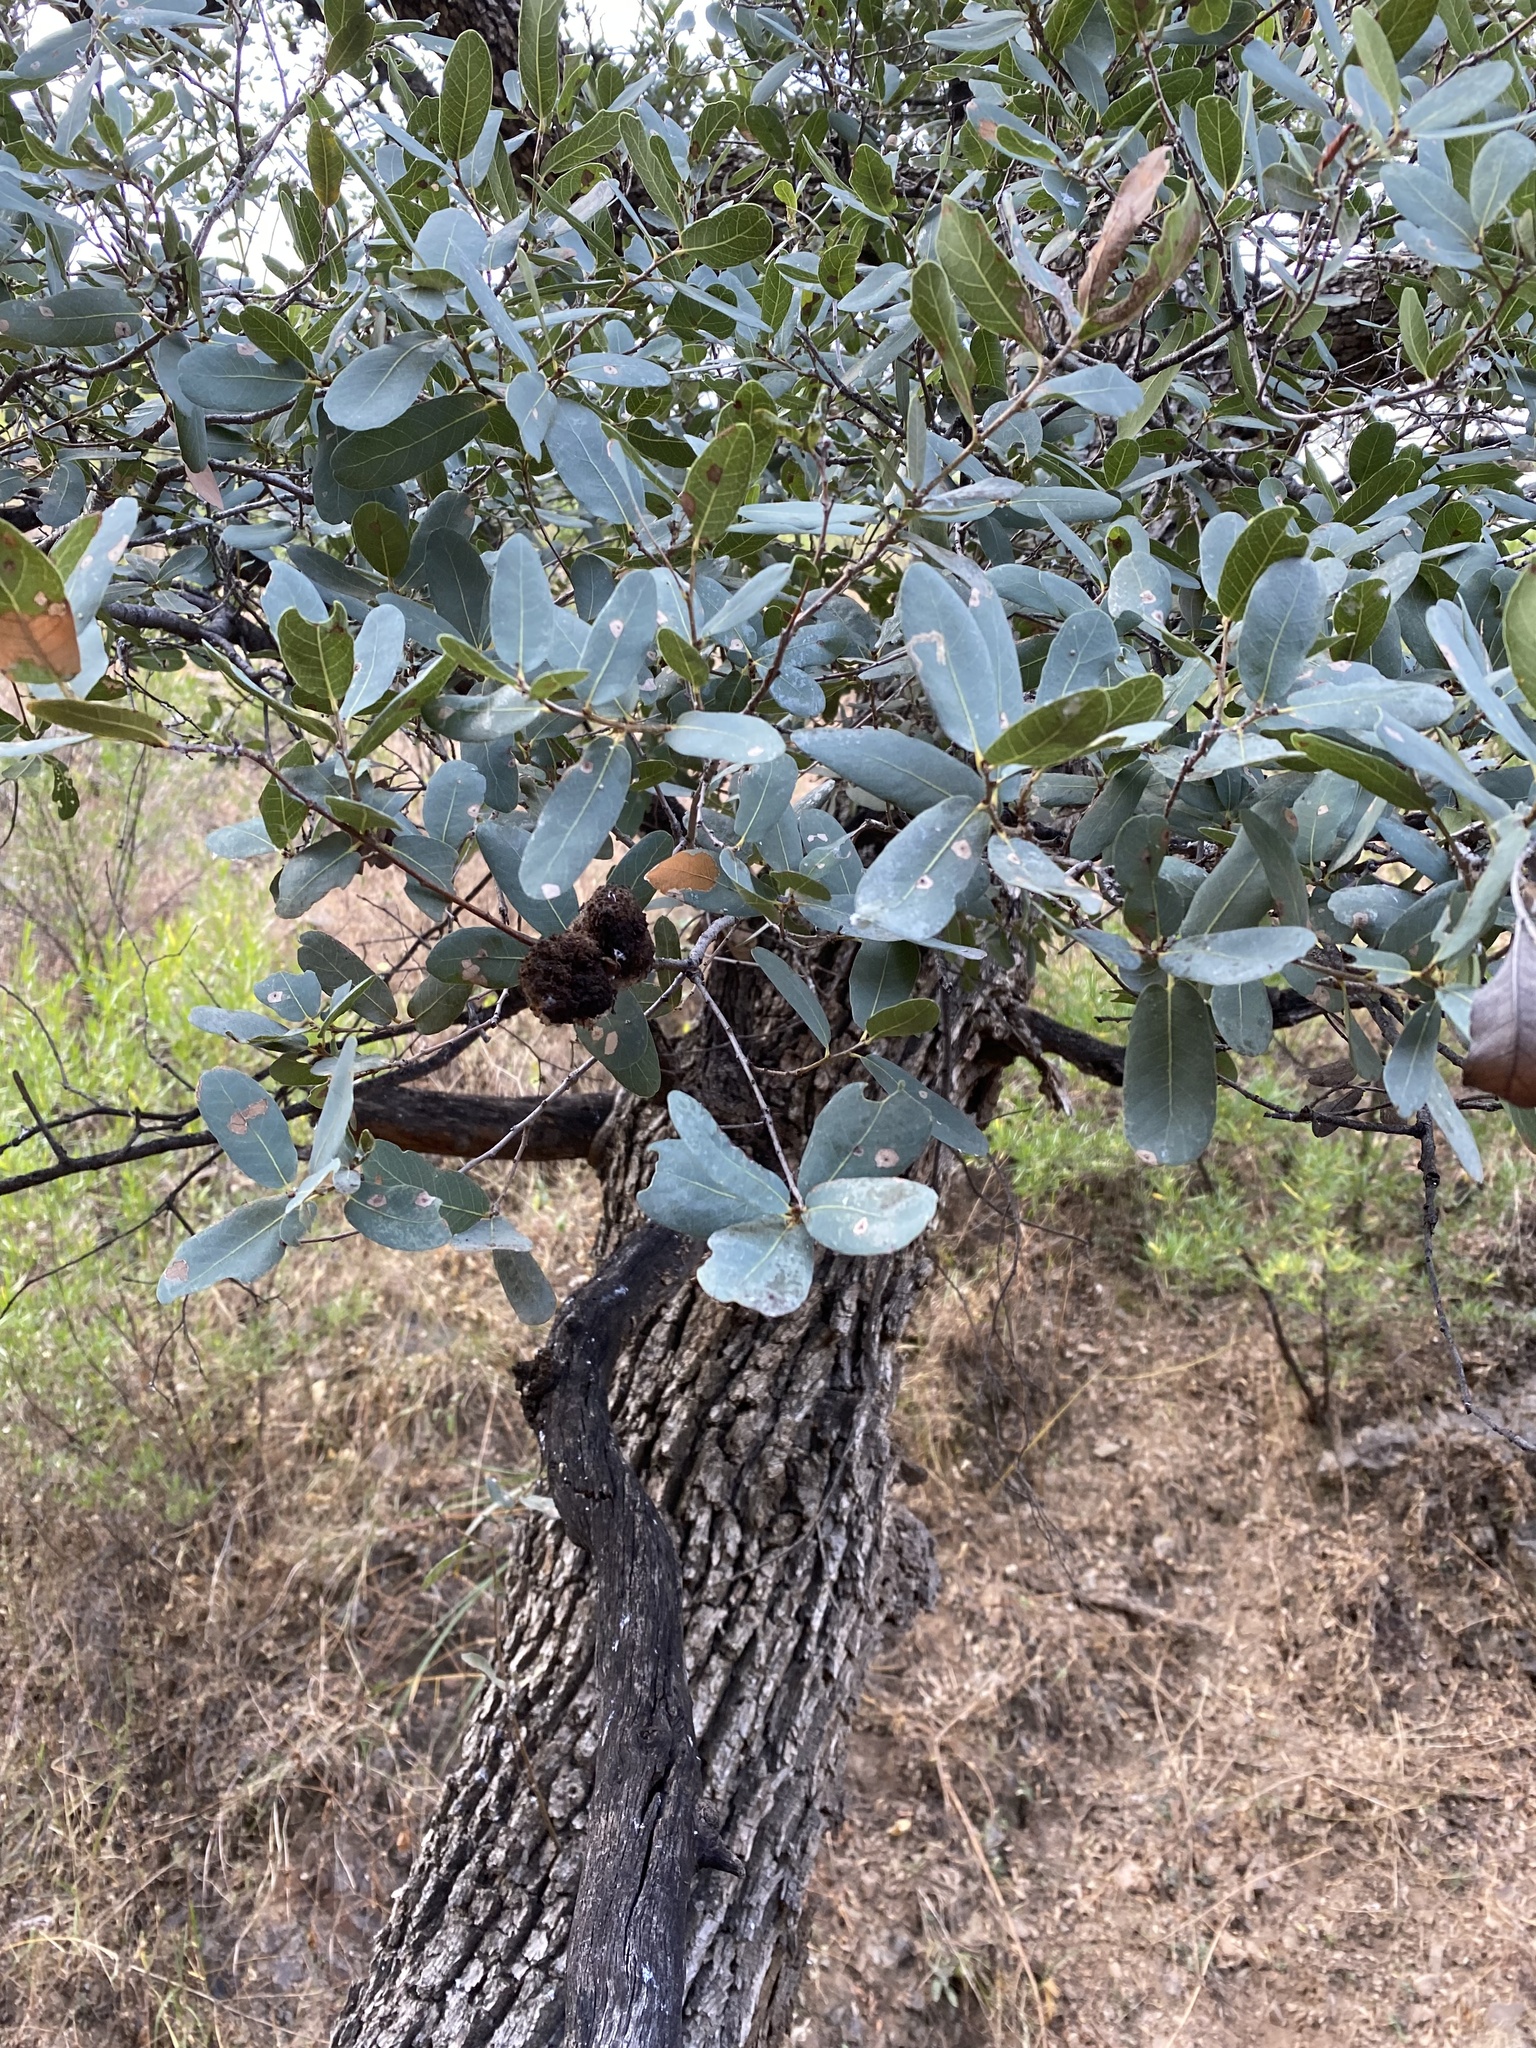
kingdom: Plantae
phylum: Tracheophyta
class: Magnoliopsida
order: Fagales
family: Fagaceae
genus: Quercus
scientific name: Quercus oblongifolia
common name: Mexican blue oak
